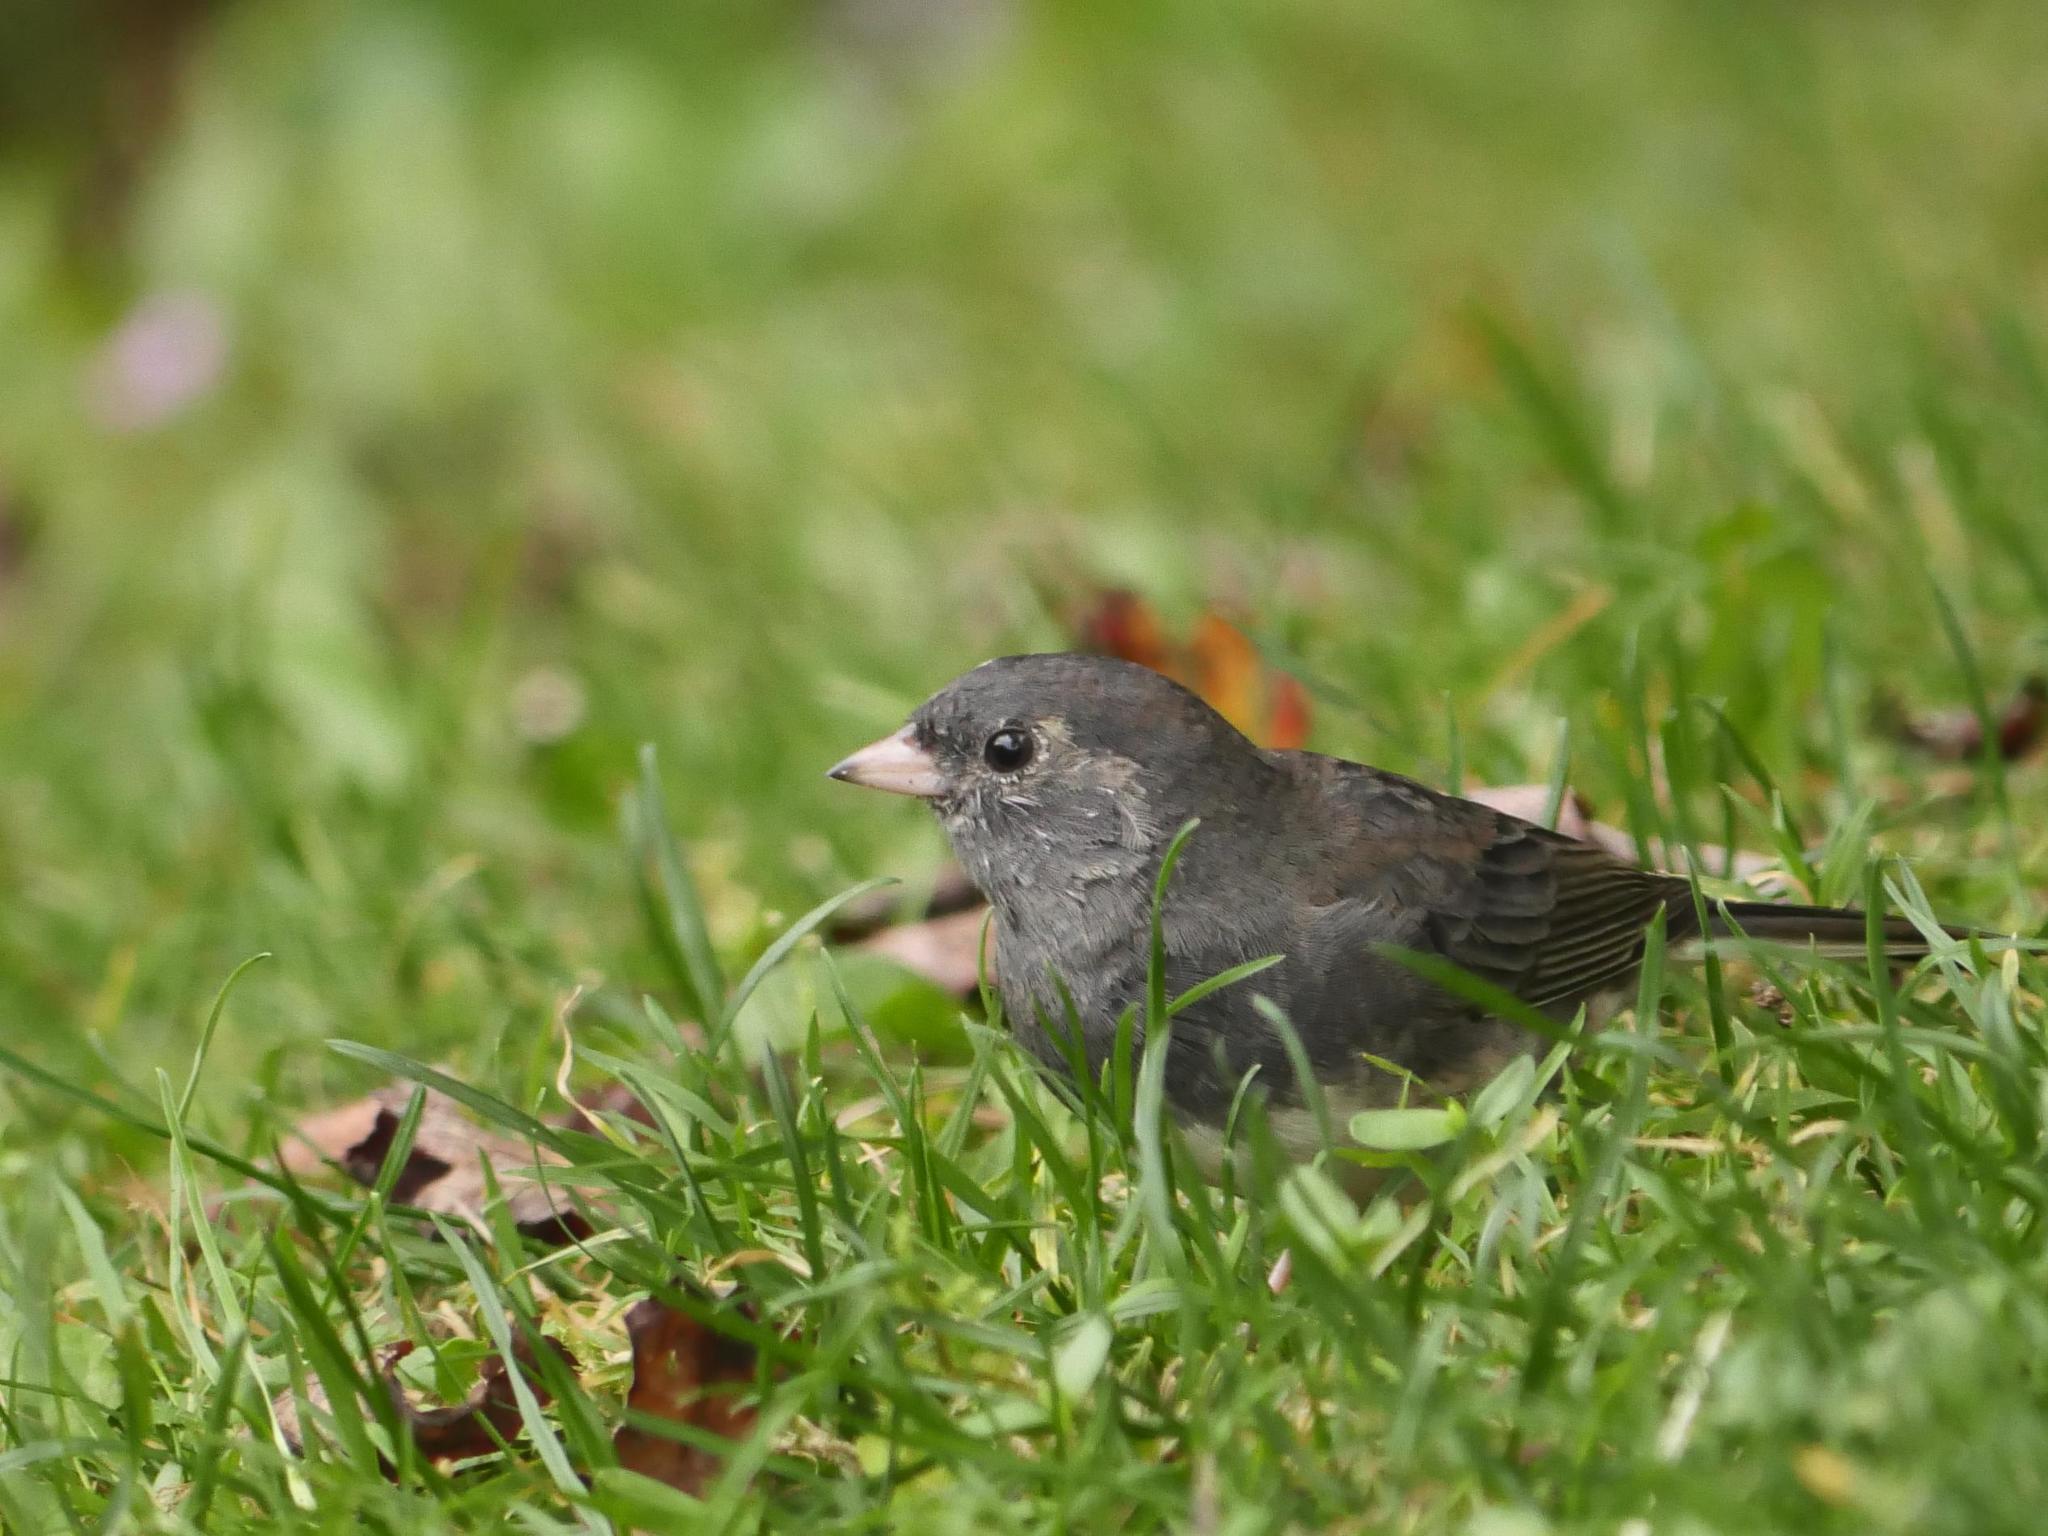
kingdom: Animalia
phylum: Chordata
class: Aves
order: Passeriformes
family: Passerellidae
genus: Junco
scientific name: Junco hyemalis
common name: Dark-eyed junco
